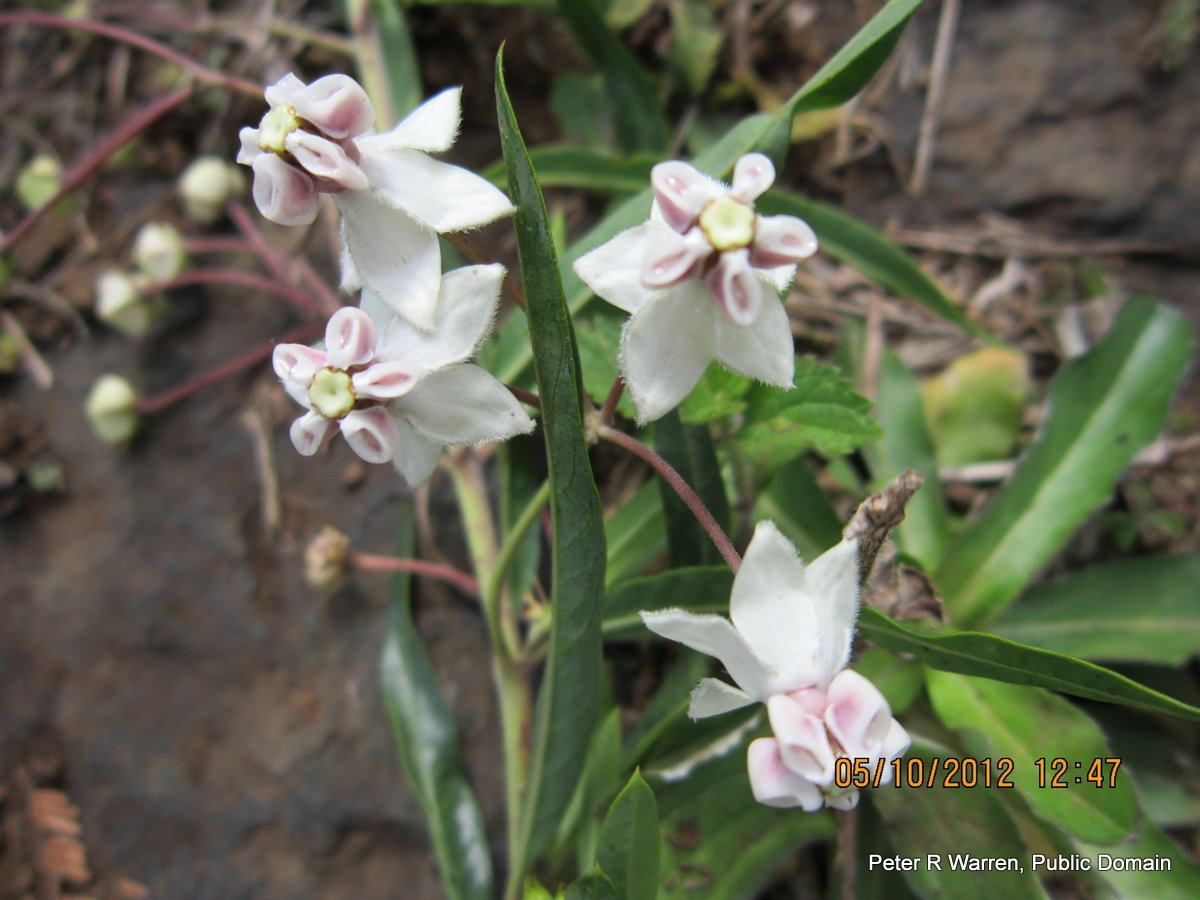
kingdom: Plantae
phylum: Tracheophyta
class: Magnoliopsida
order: Gentianales
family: Apocynaceae
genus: Gomphocarpus
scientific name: Gomphocarpus physocarpus
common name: Balloon cotton bush
